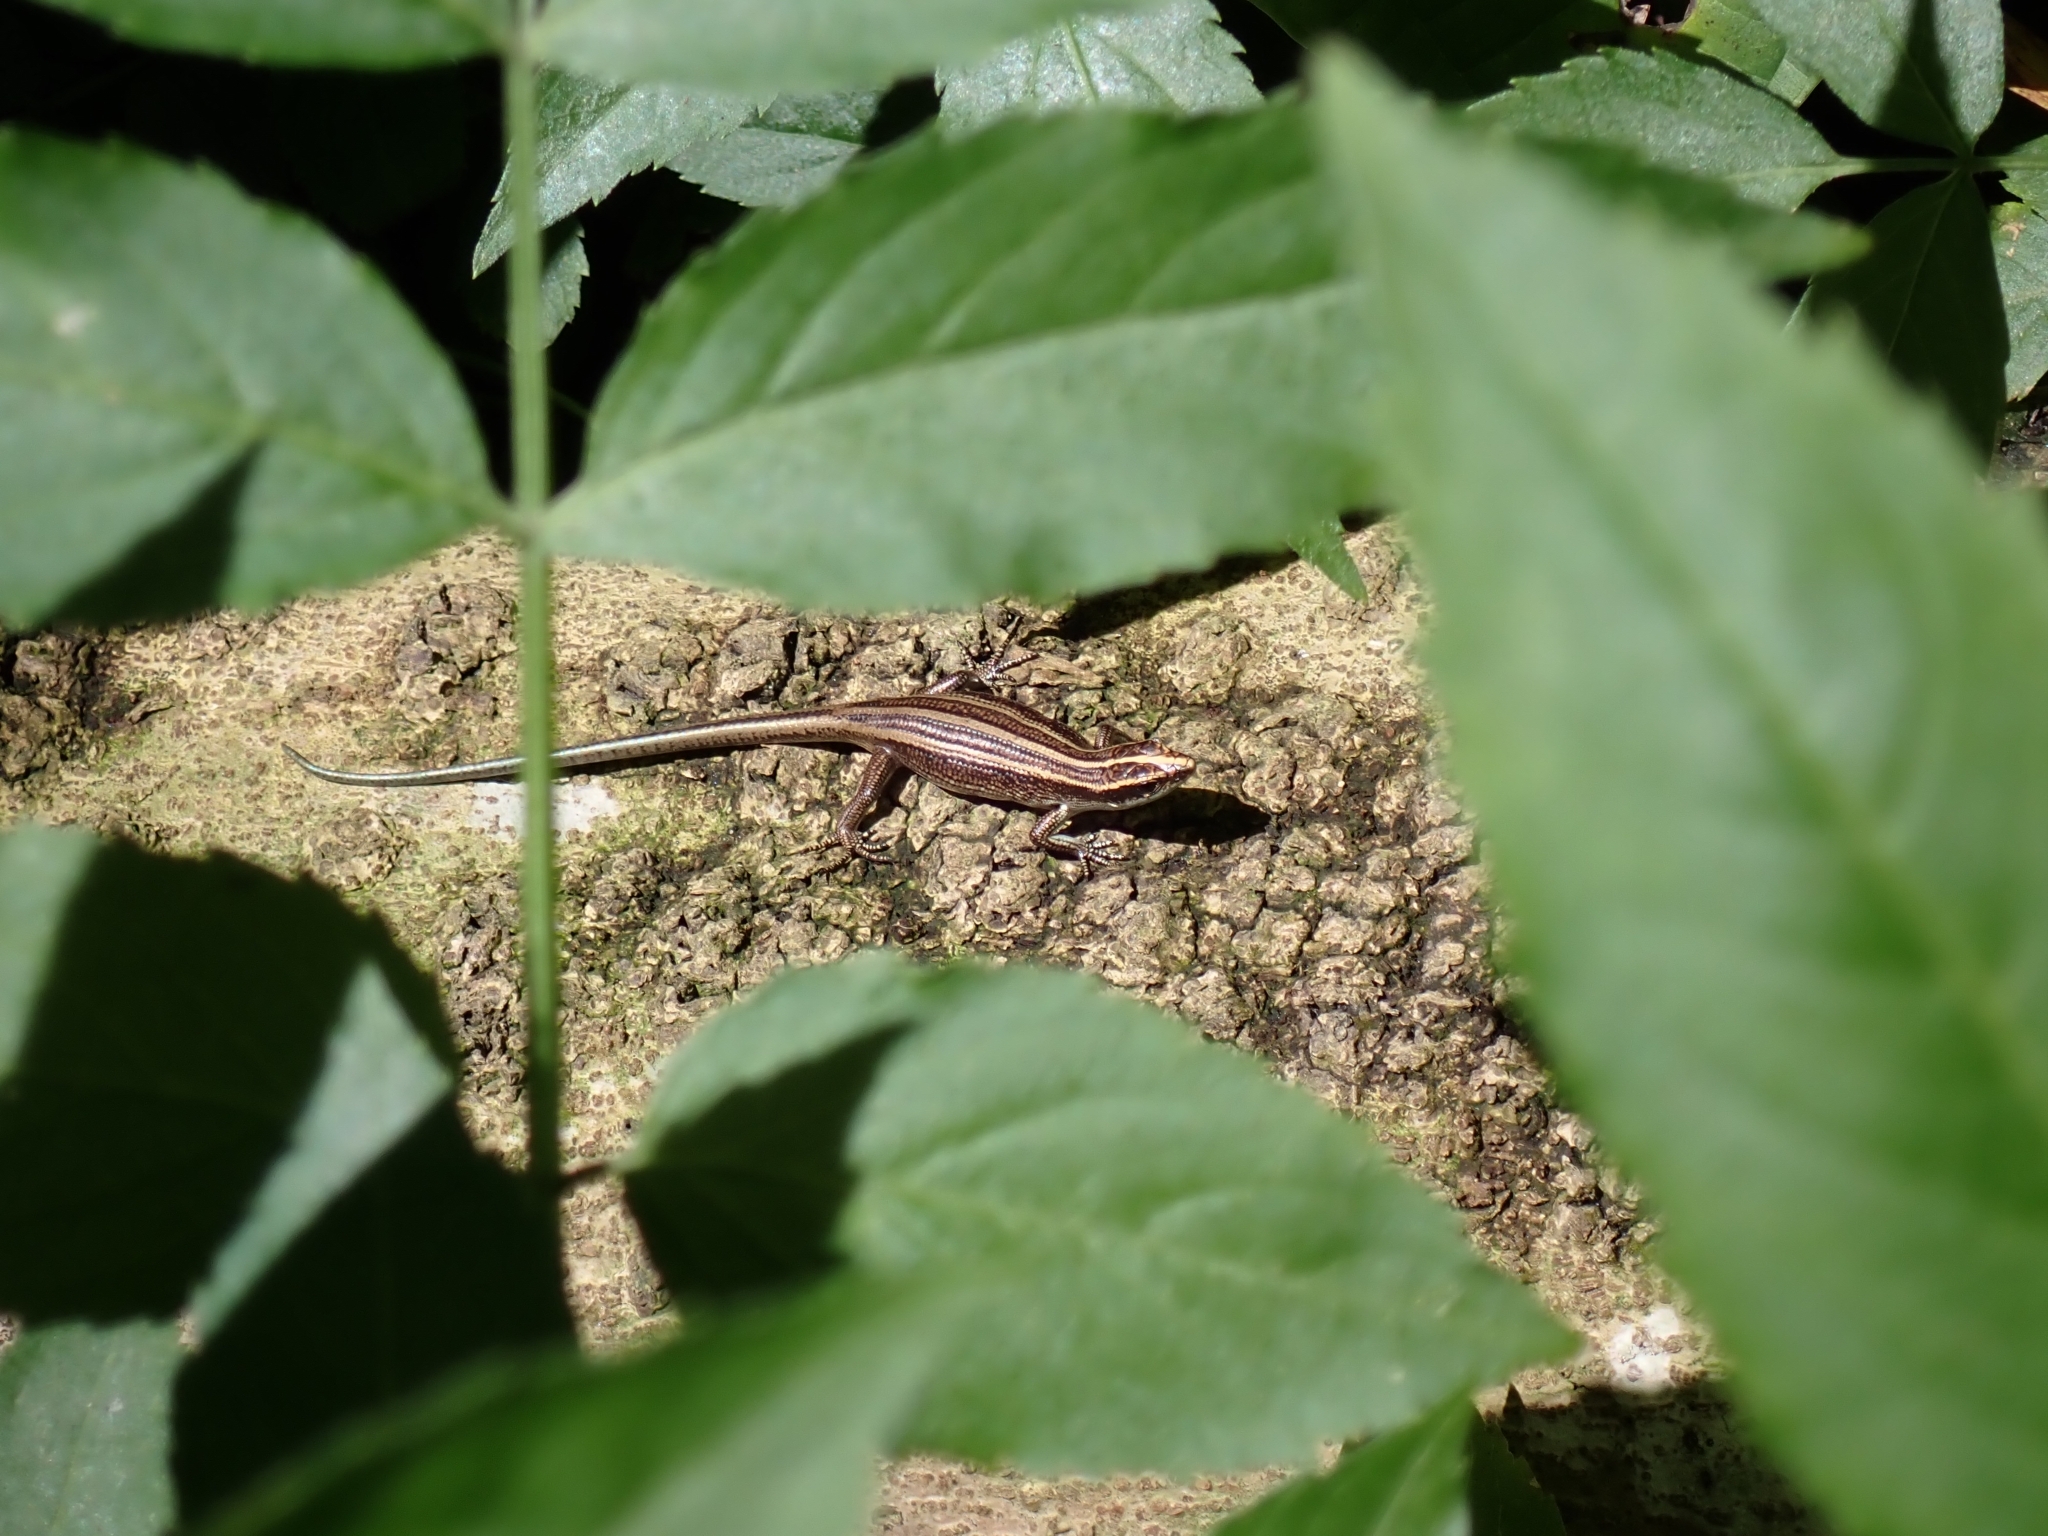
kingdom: Animalia
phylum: Chordata
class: Squamata
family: Scincidae
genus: Emoia
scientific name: Emoia caeruleocauda
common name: Pacific bluetail skink
